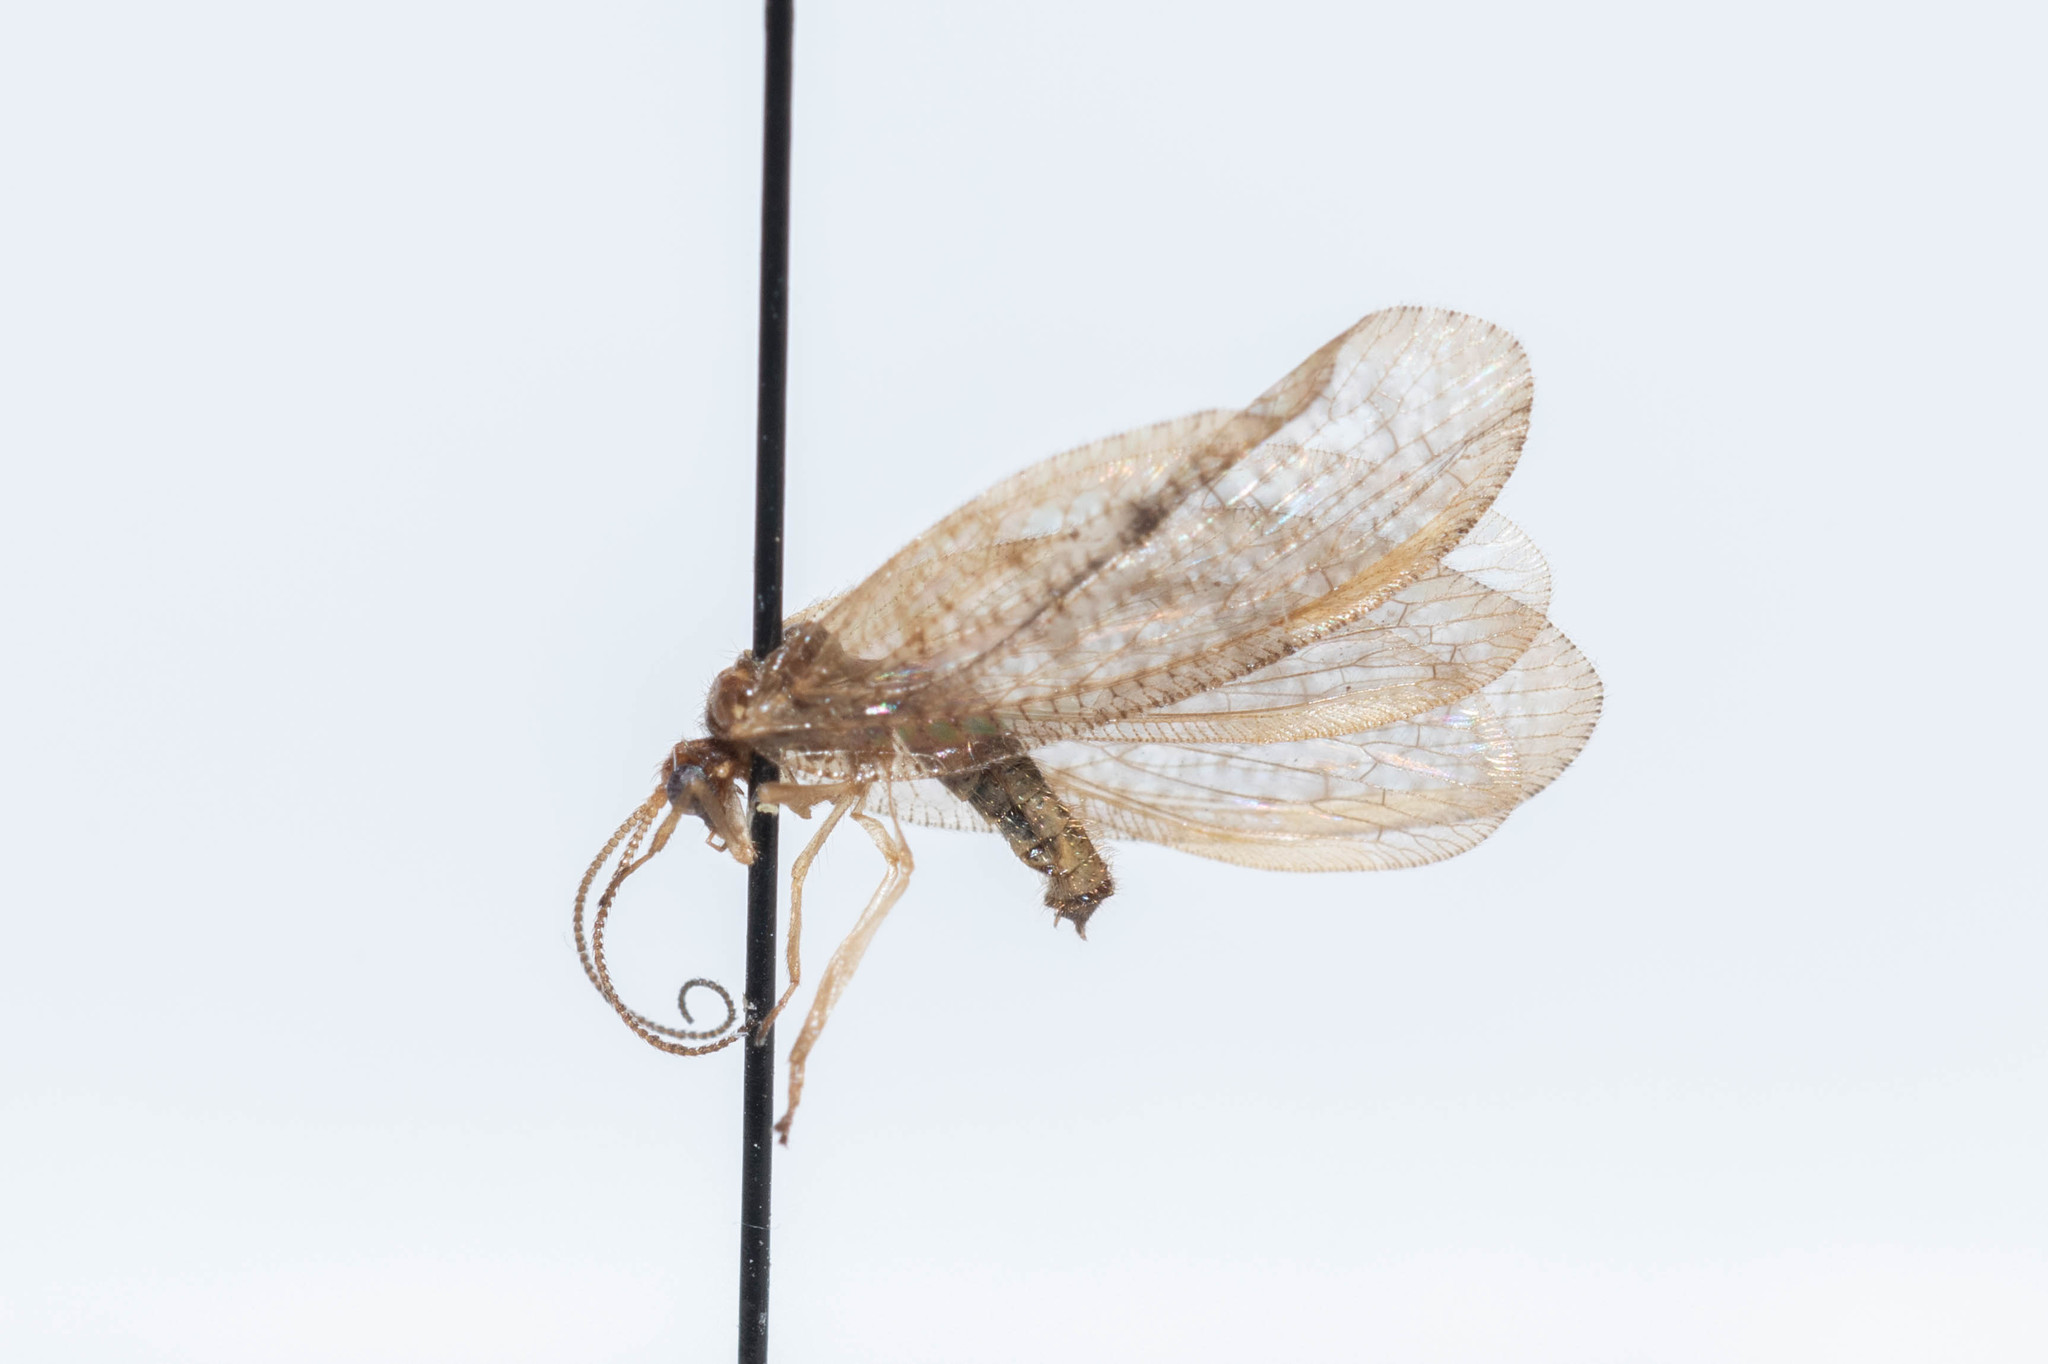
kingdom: Animalia
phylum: Arthropoda
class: Insecta
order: Neuroptera
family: Hemerobiidae
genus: Hemerobius
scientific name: Hemerobius stigma
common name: Brown pine lacewing
